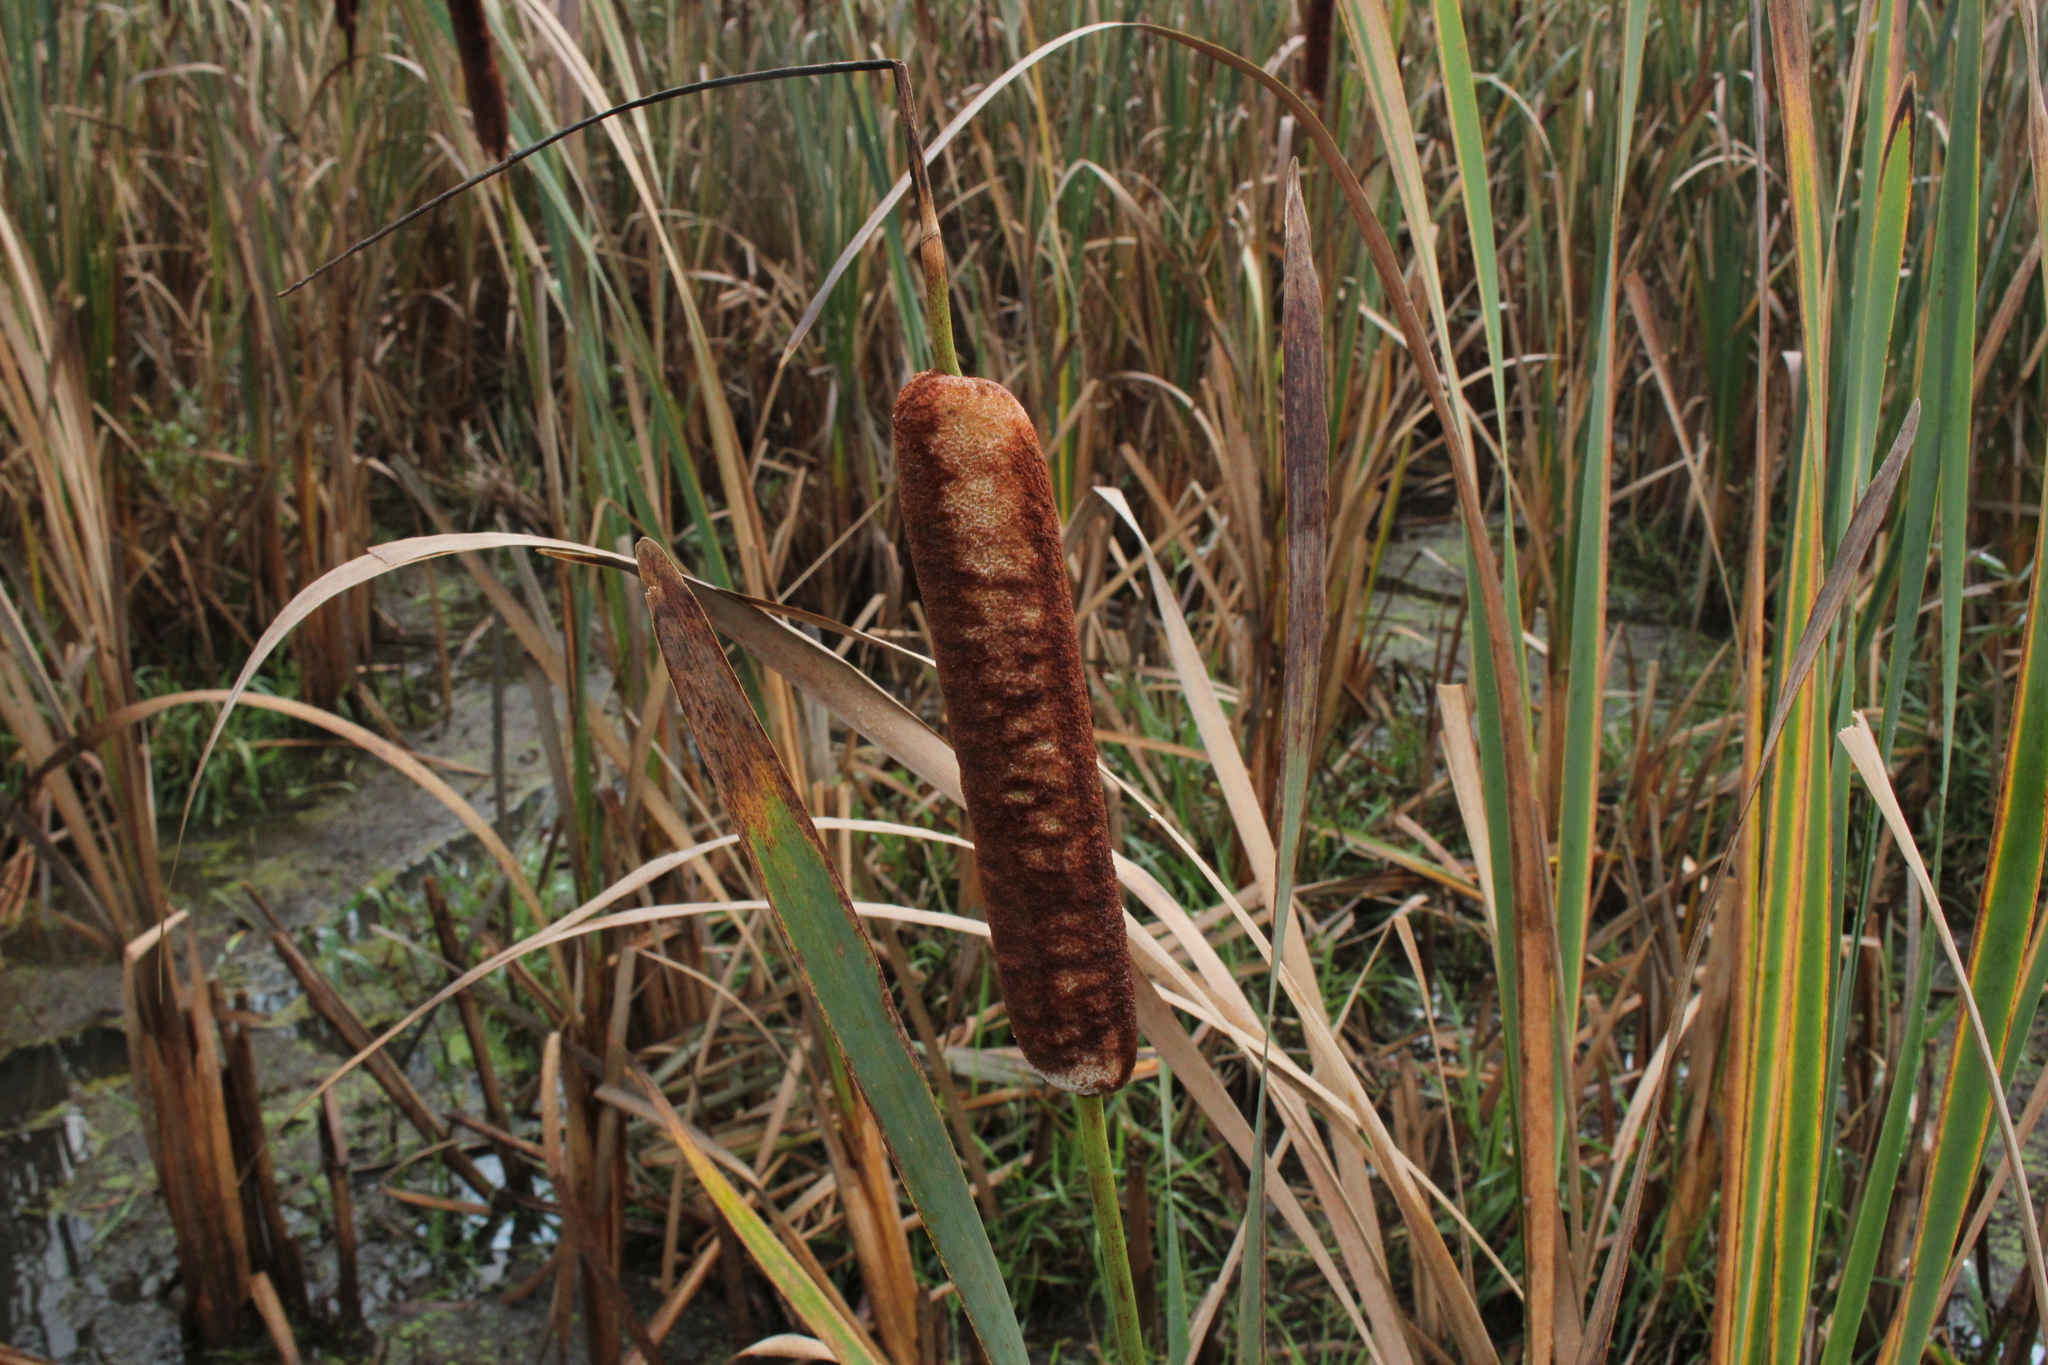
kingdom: Plantae
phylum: Tracheophyta
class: Liliopsida
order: Poales
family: Typhaceae
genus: Typha
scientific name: Typha angustifolia
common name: Lesser bulrush
